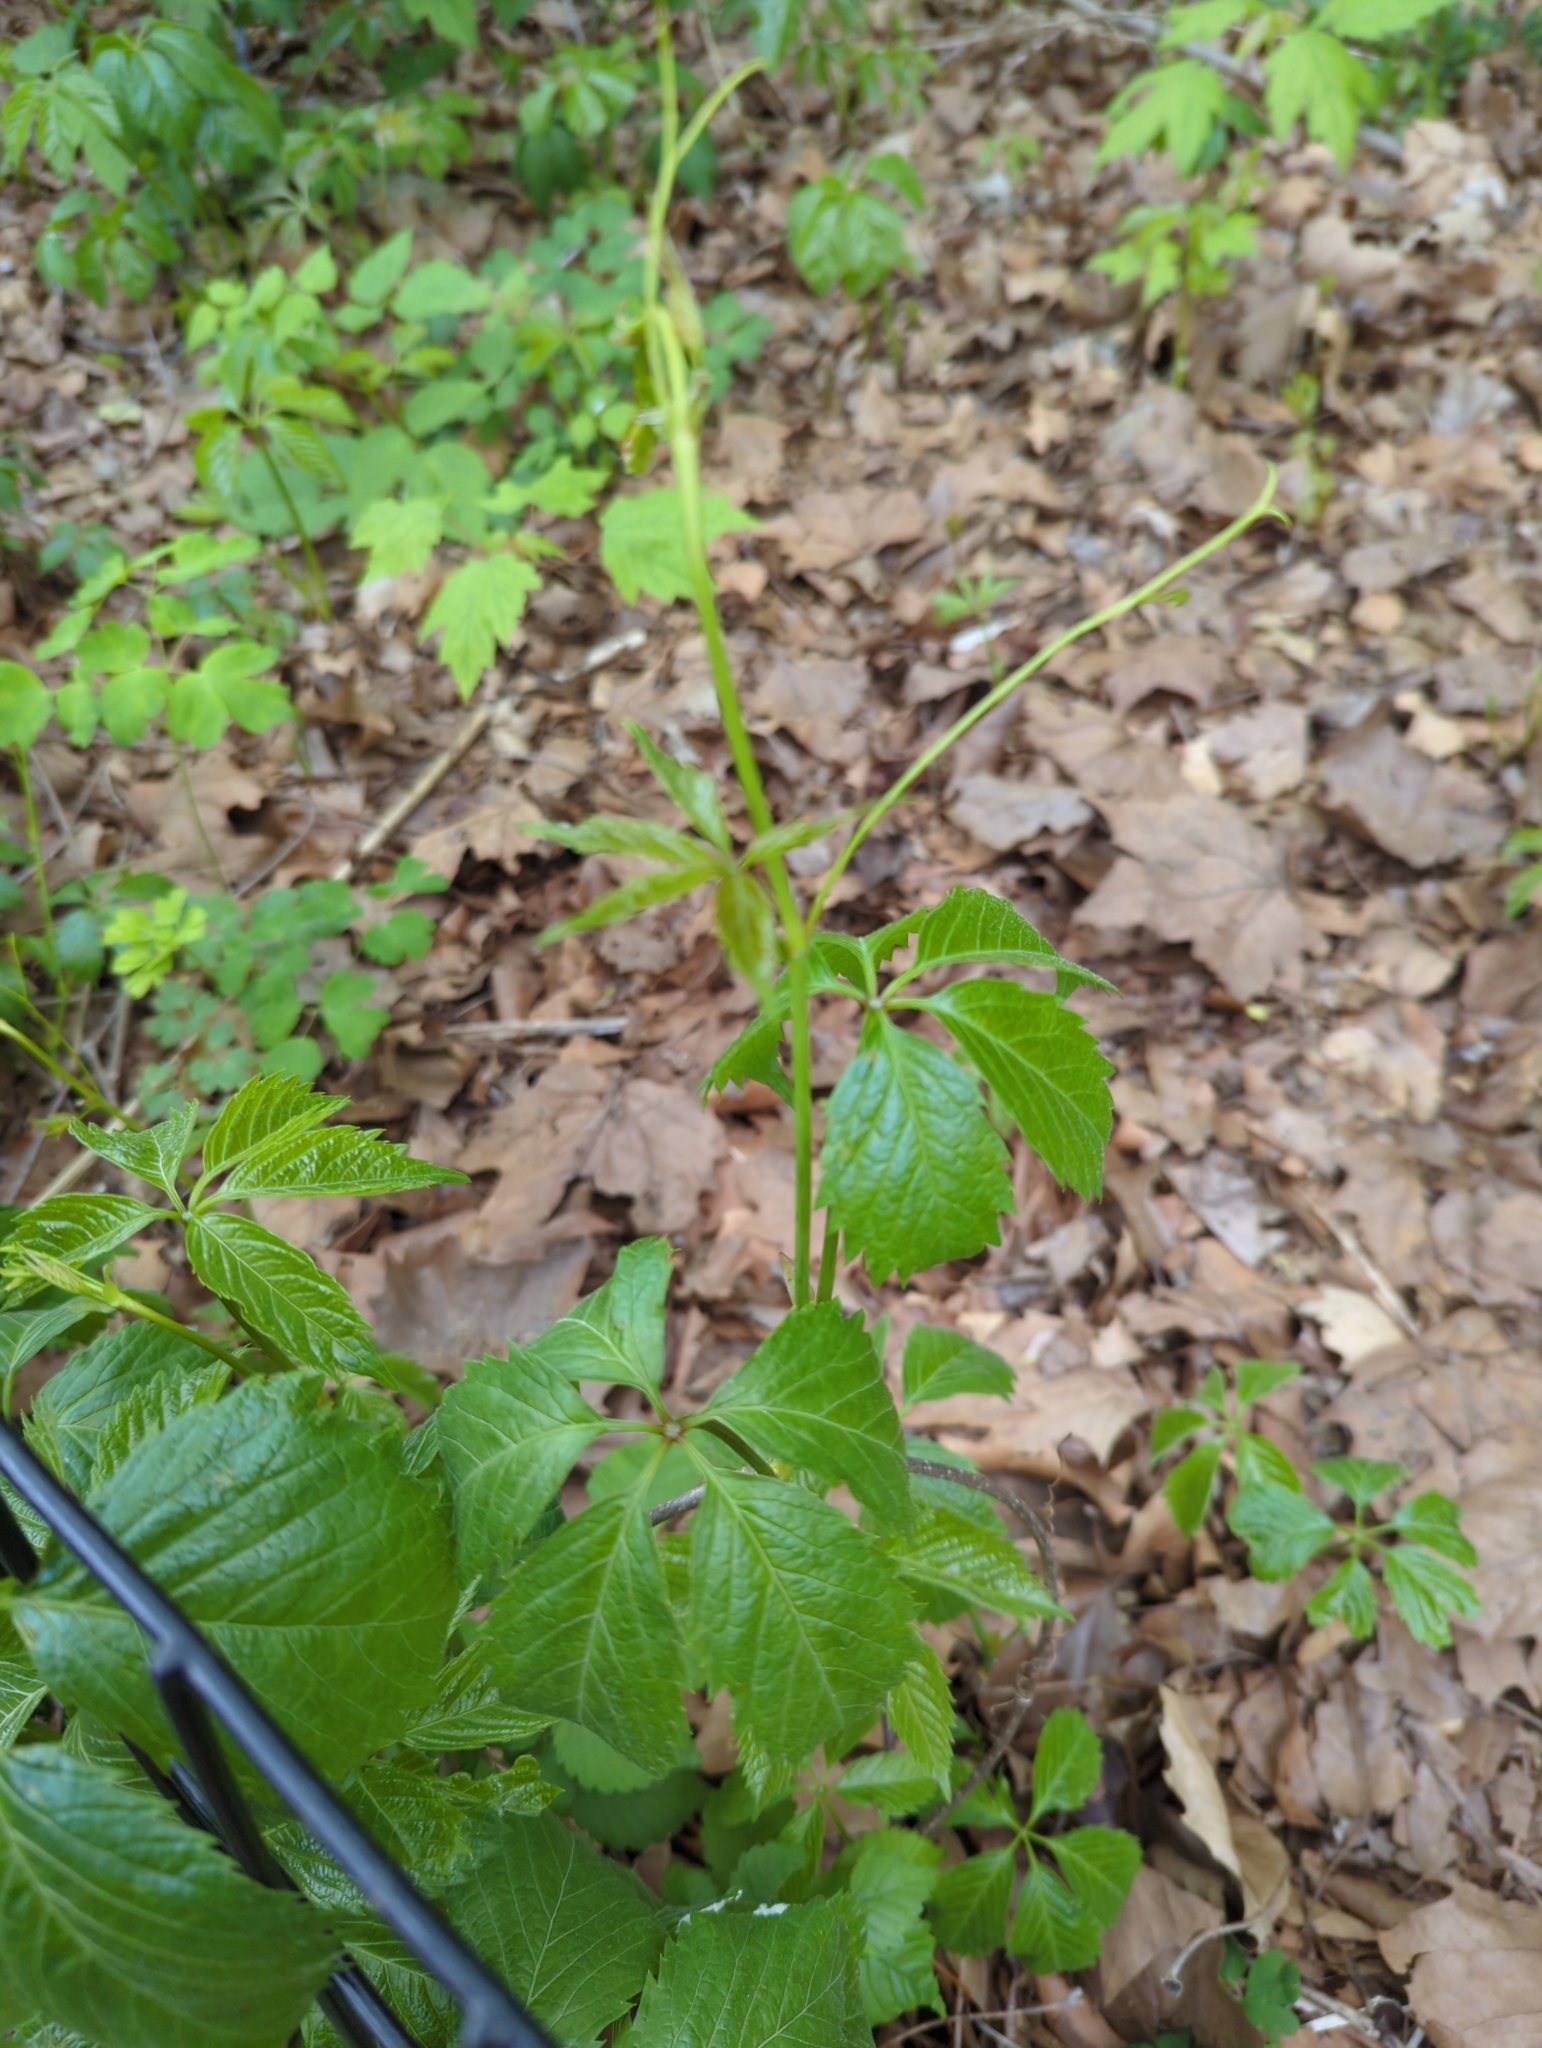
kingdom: Plantae
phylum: Tracheophyta
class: Magnoliopsida
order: Vitales
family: Vitaceae
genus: Parthenocissus
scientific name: Parthenocissus inserta
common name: False virginia-creeper
